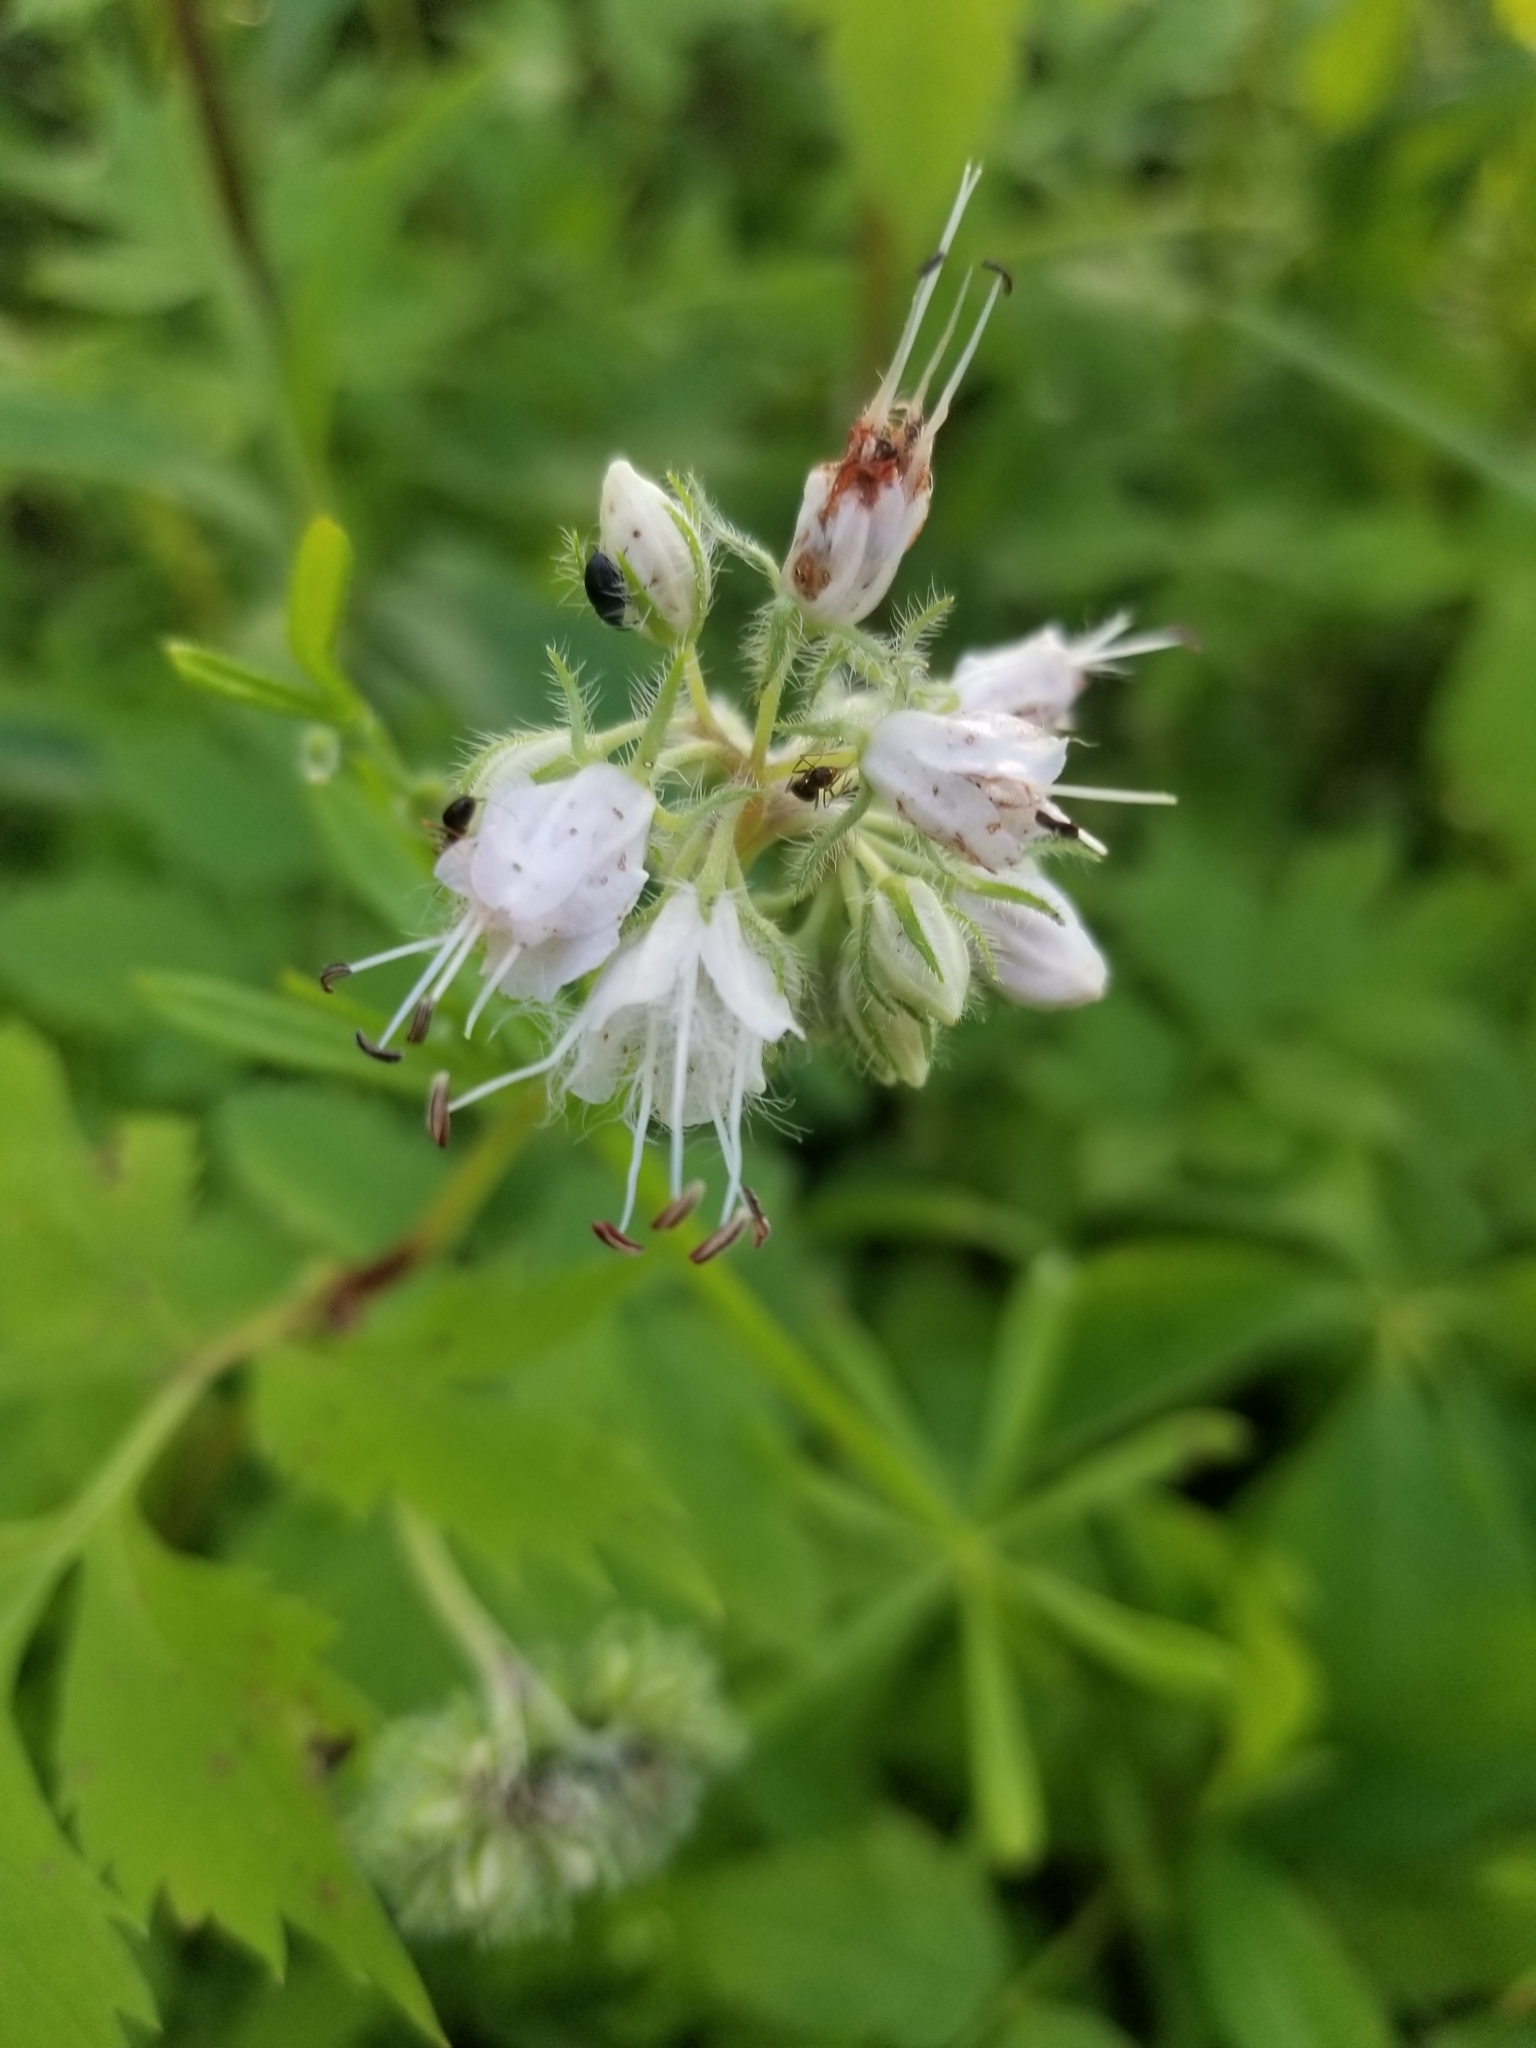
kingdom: Plantae
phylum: Tracheophyta
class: Magnoliopsida
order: Boraginales
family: Hydrophyllaceae
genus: Hydrophyllum
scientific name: Hydrophyllum virginianum
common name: Virginia waterleaf
